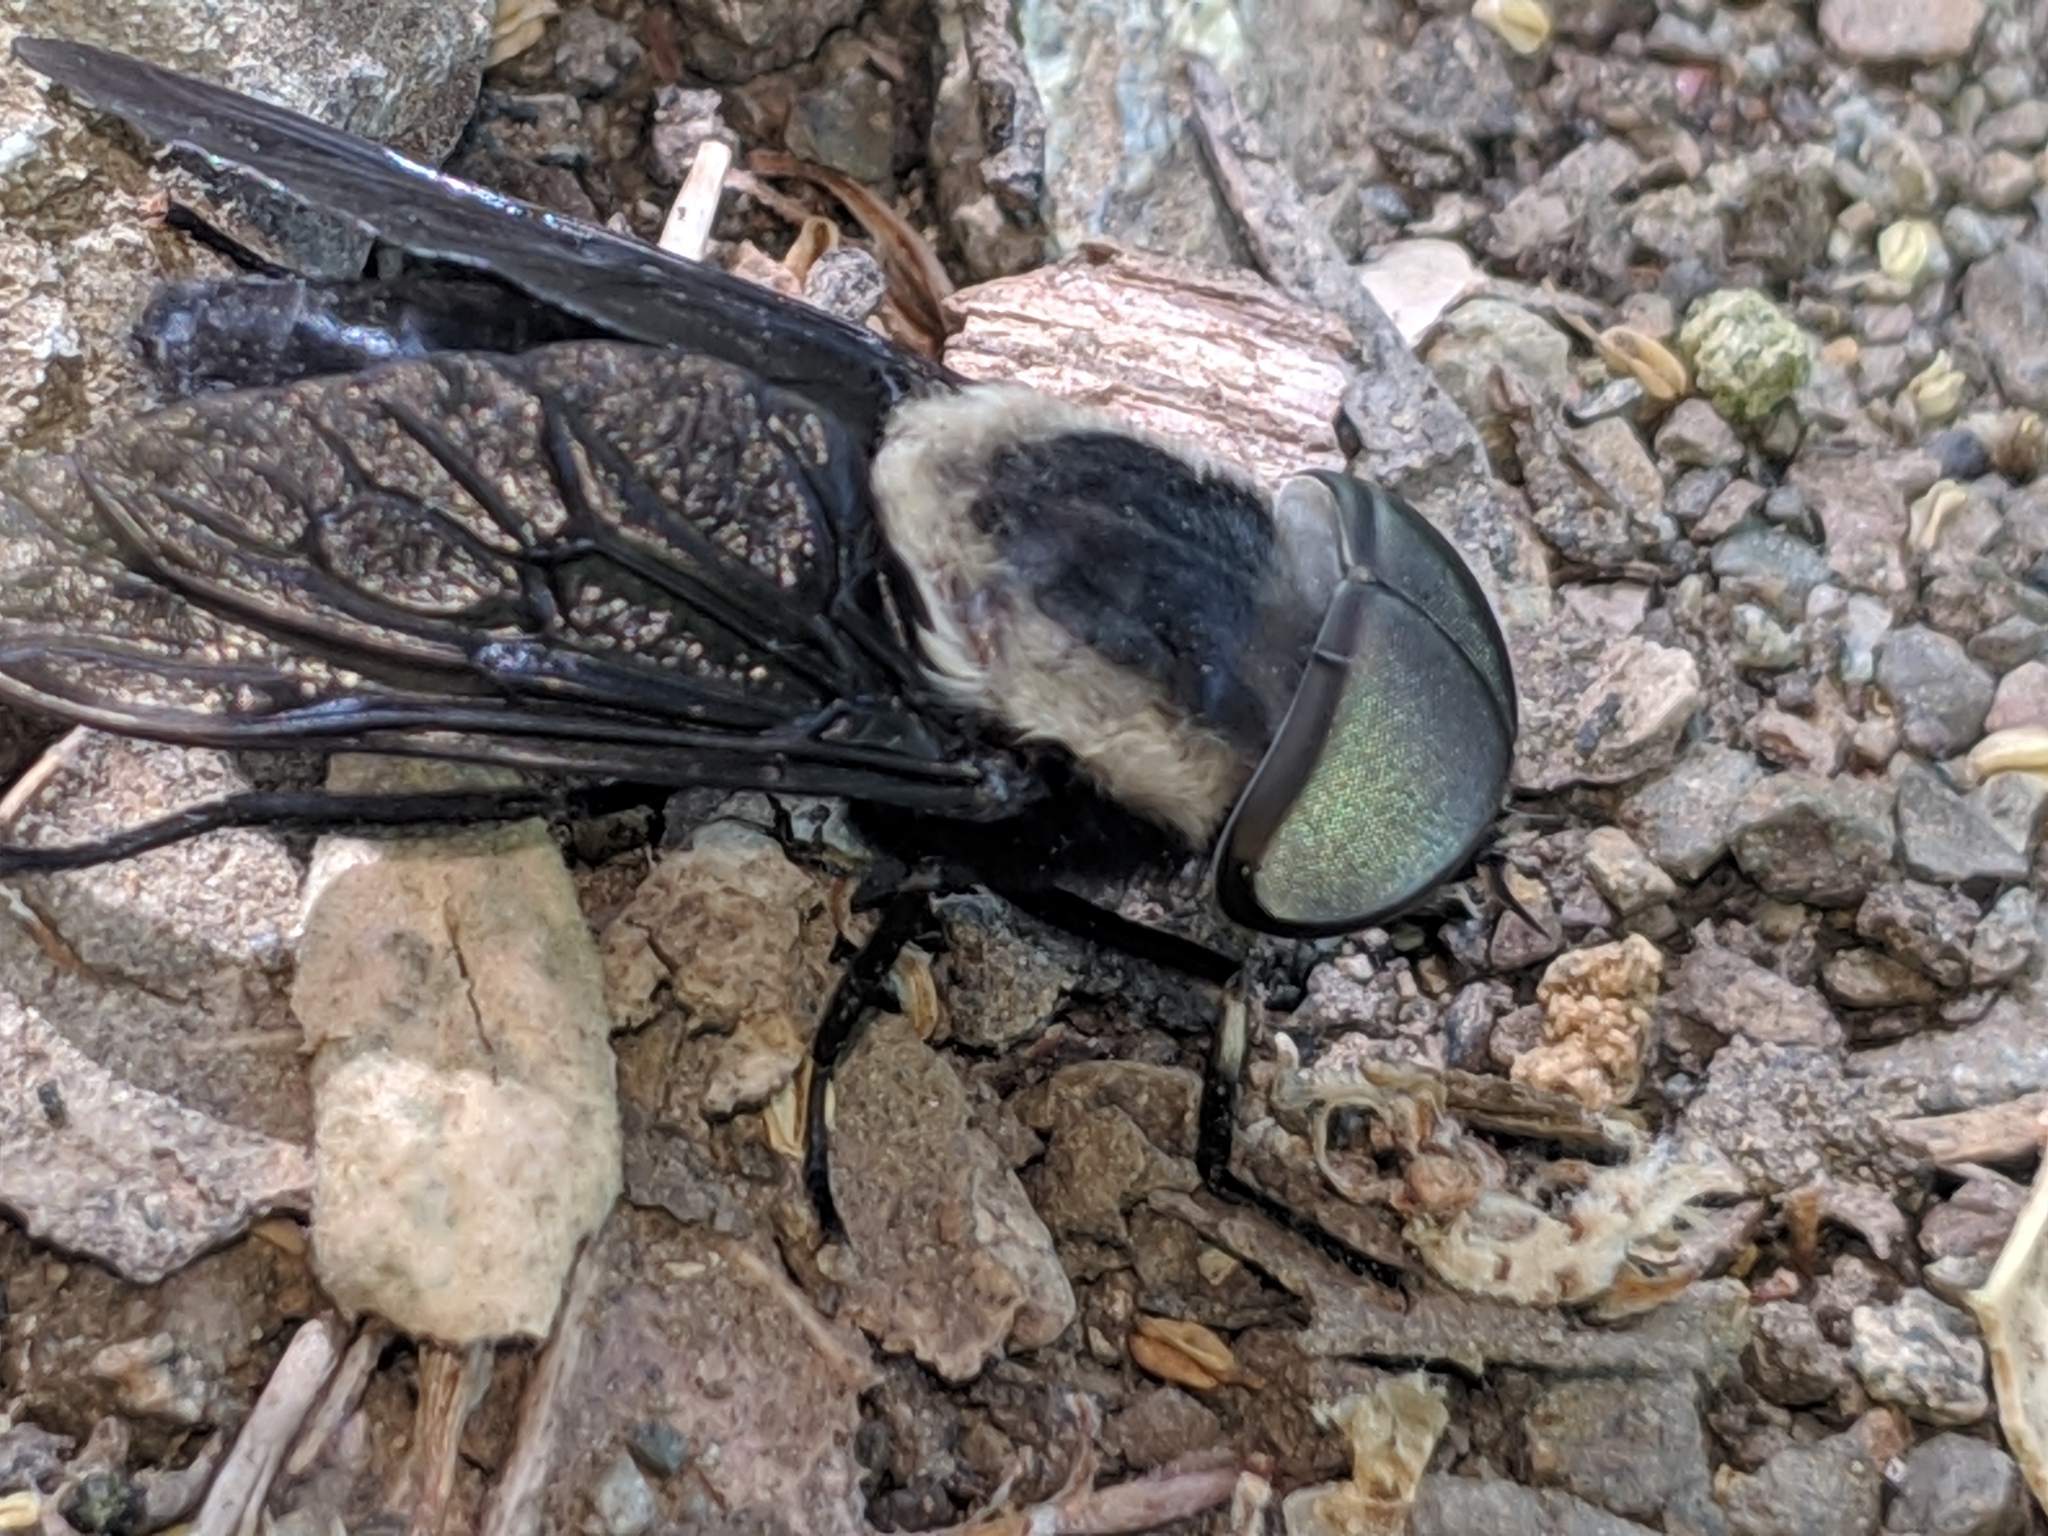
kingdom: Animalia
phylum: Arthropoda
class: Insecta
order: Diptera
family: Tabanidae
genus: Tabanus
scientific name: Tabanus punctifer
